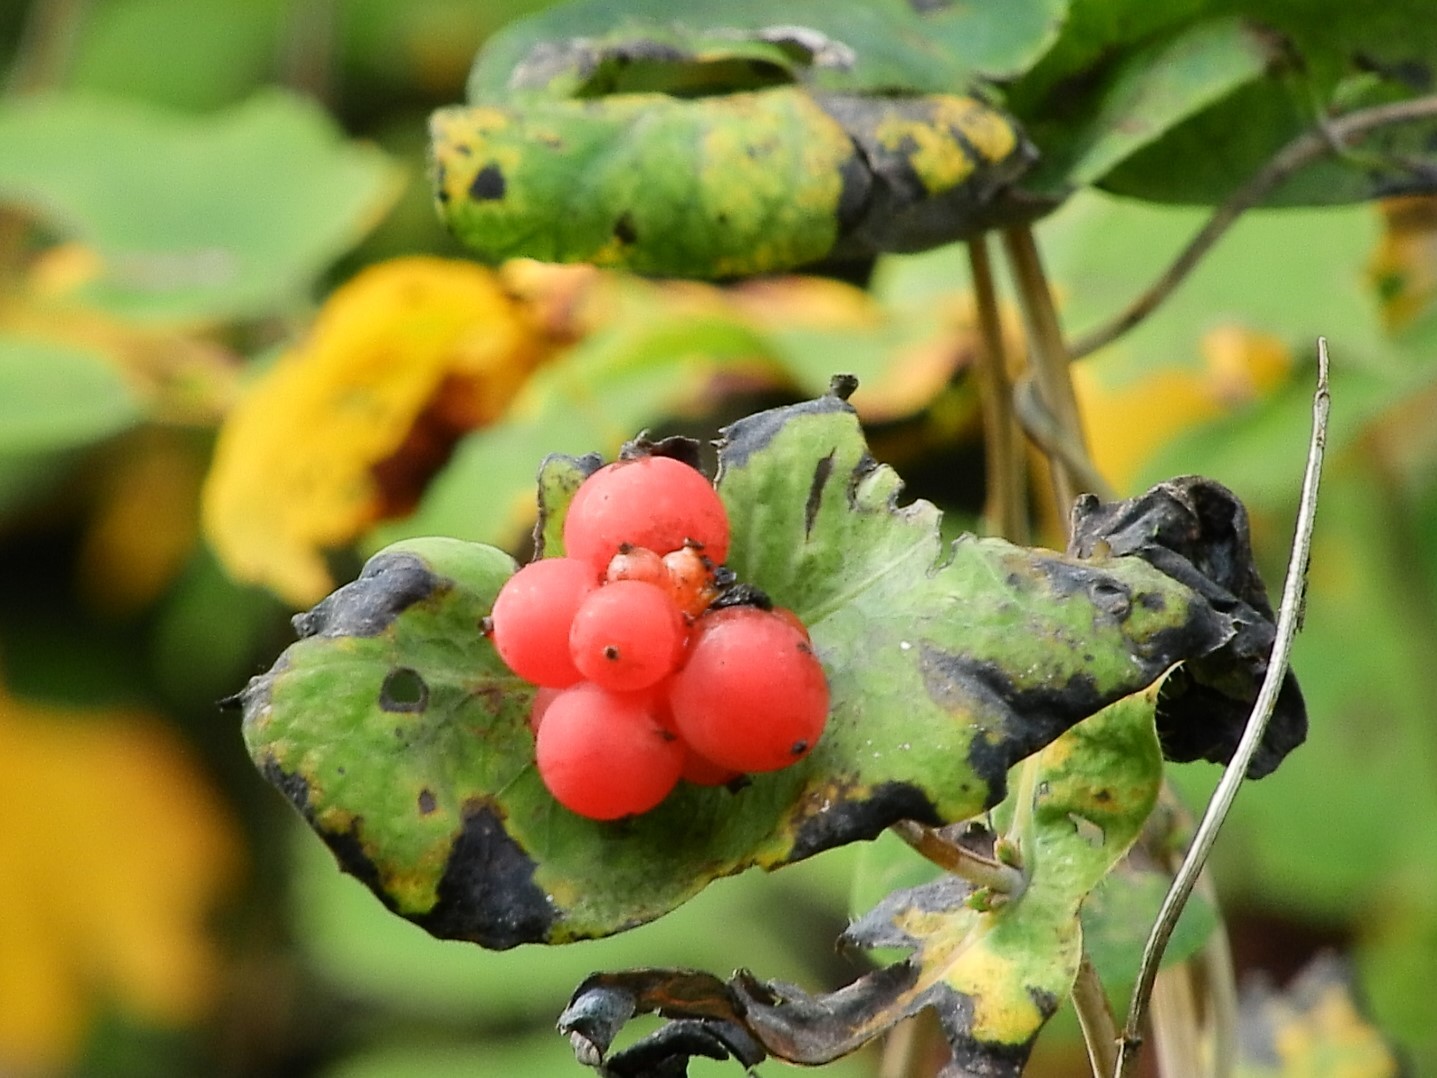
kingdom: Plantae
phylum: Tracheophyta
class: Magnoliopsida
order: Dipsacales
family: Caprifoliaceae
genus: Lonicera
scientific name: Lonicera ciliosa
